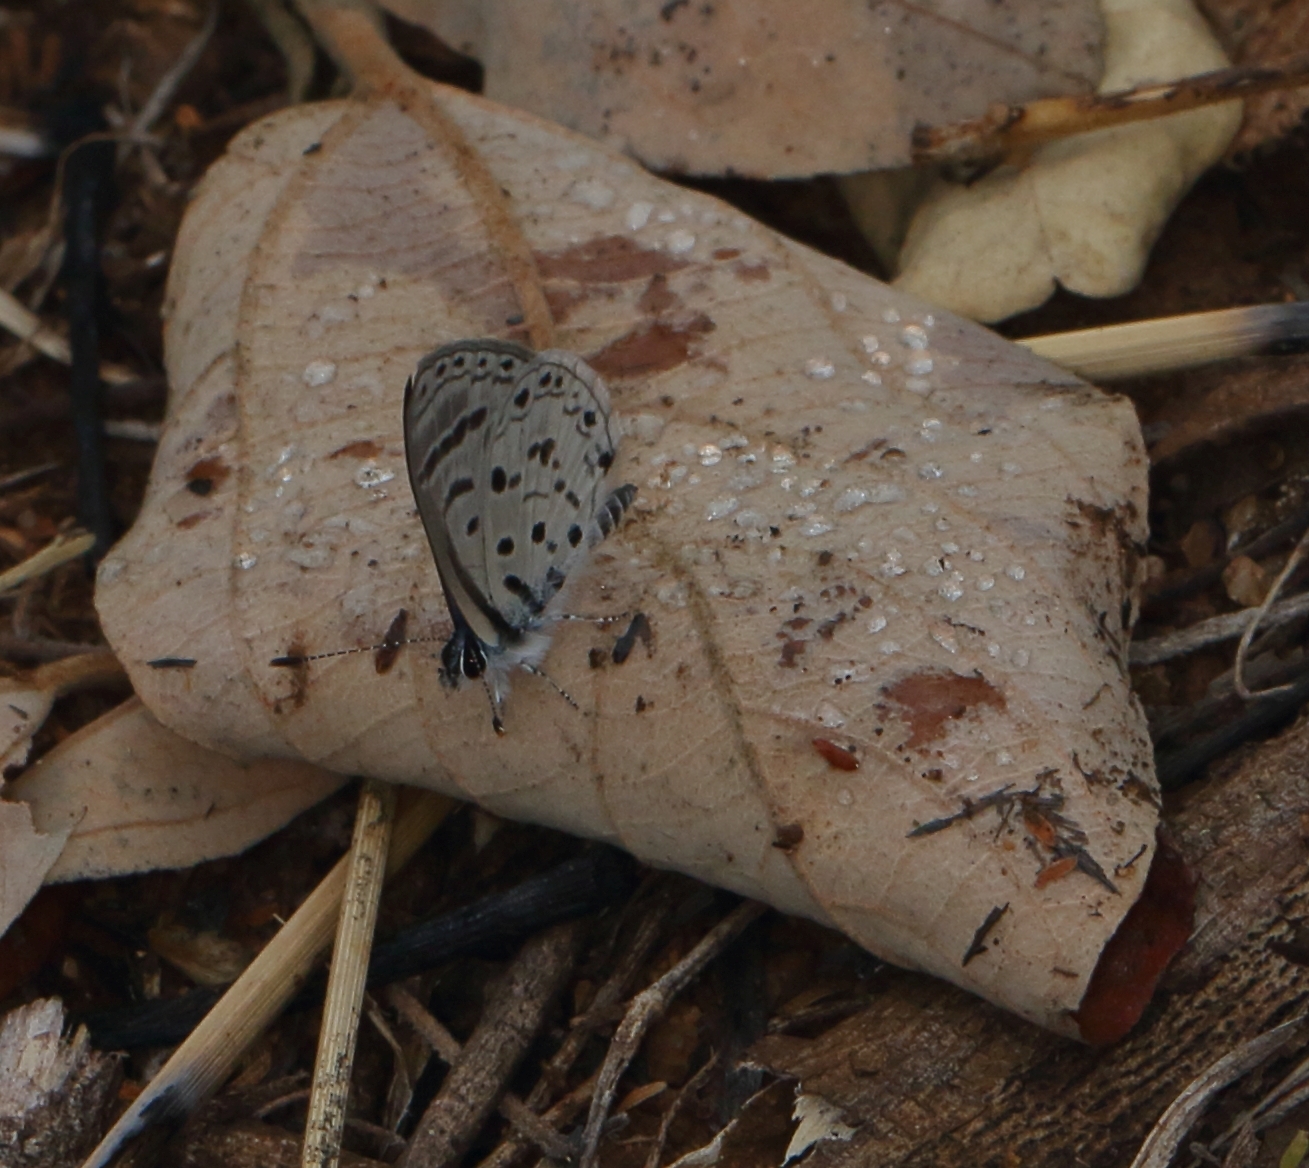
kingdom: Animalia
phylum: Arthropoda
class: Insecta
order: Lepidoptera
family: Lycaenidae
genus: Azanus
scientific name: Azanus moriqua
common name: Thorn-tree babul blue
